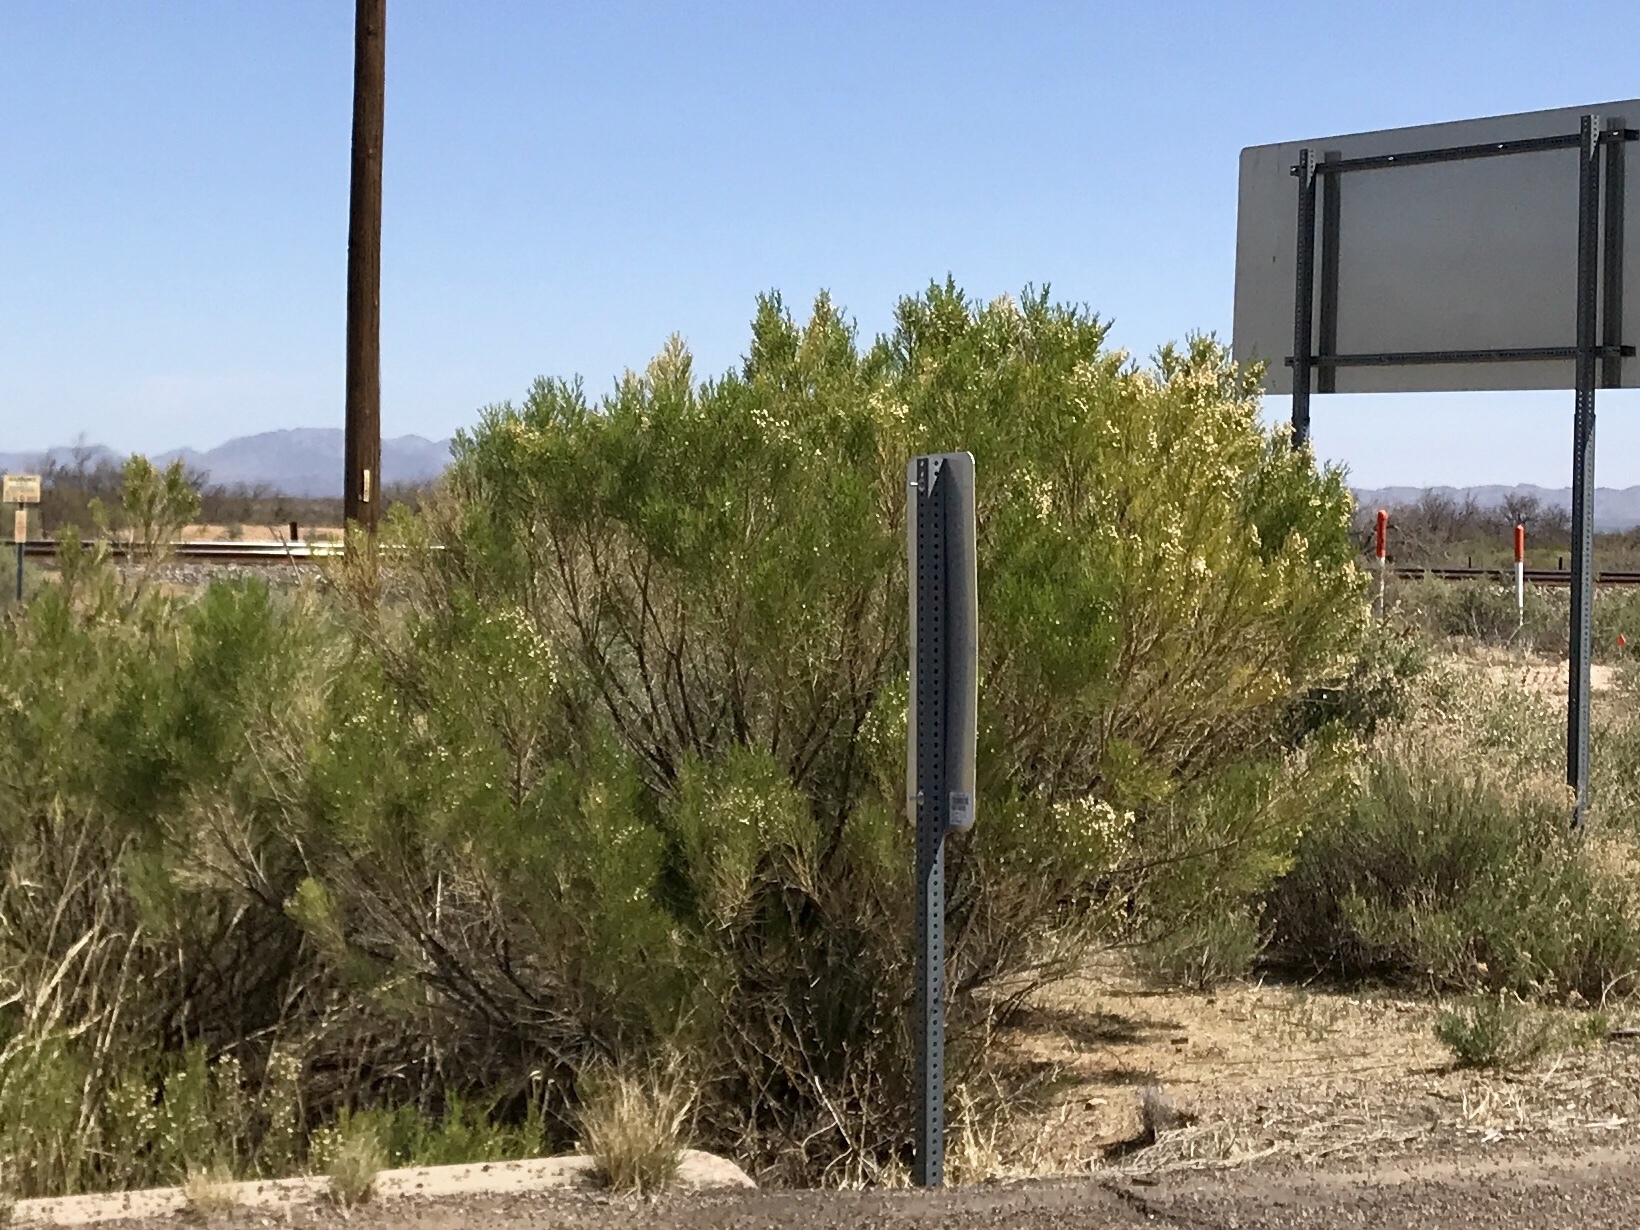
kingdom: Plantae
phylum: Tracheophyta
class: Magnoliopsida
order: Asterales
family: Asteraceae
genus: Baccharis
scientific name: Baccharis sarothroides
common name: Desert-broom
